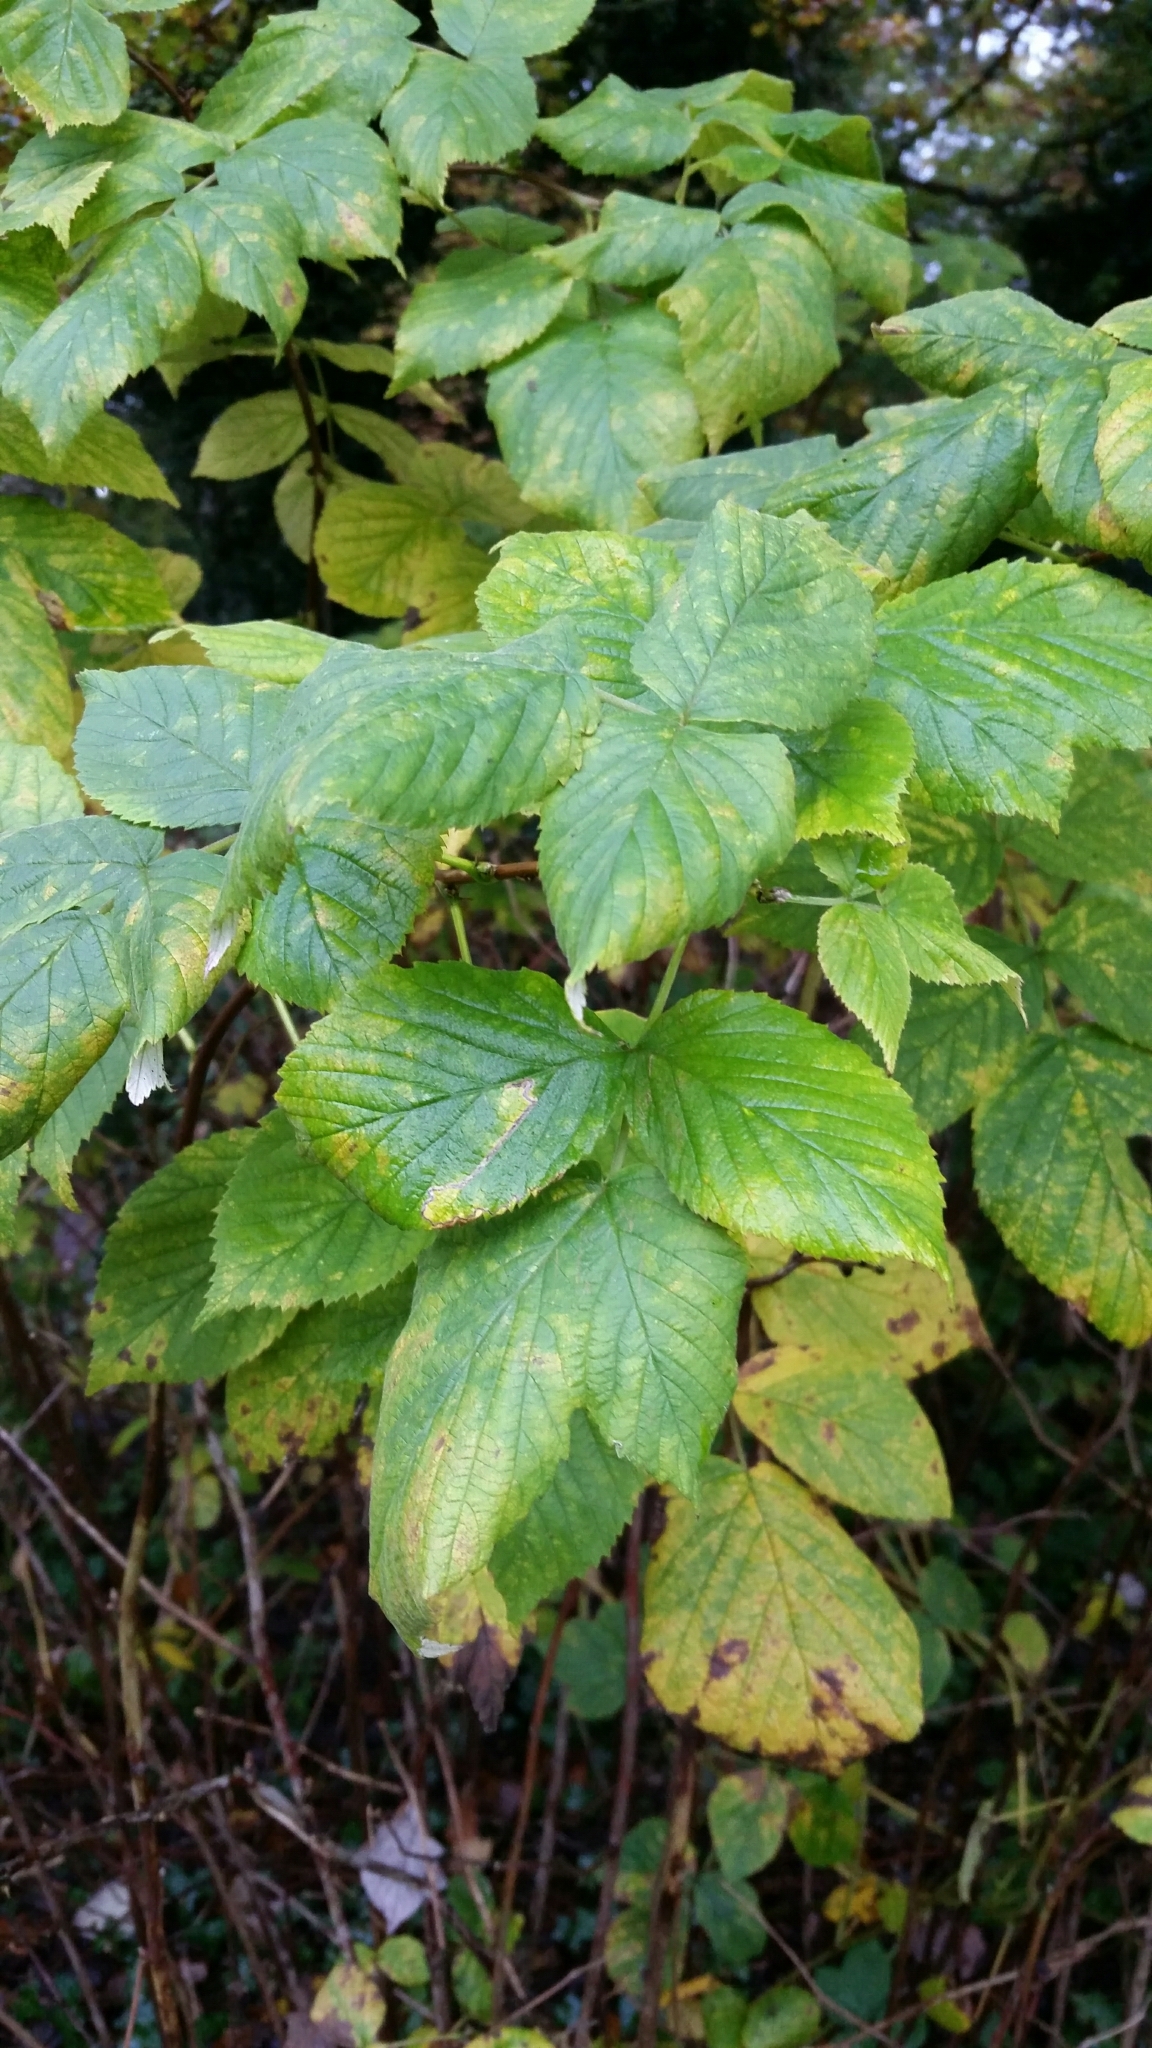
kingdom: Plantae
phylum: Tracheophyta
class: Magnoliopsida
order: Rosales
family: Rosaceae
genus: Rubus
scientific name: Rubus idaeus
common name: Raspberry
